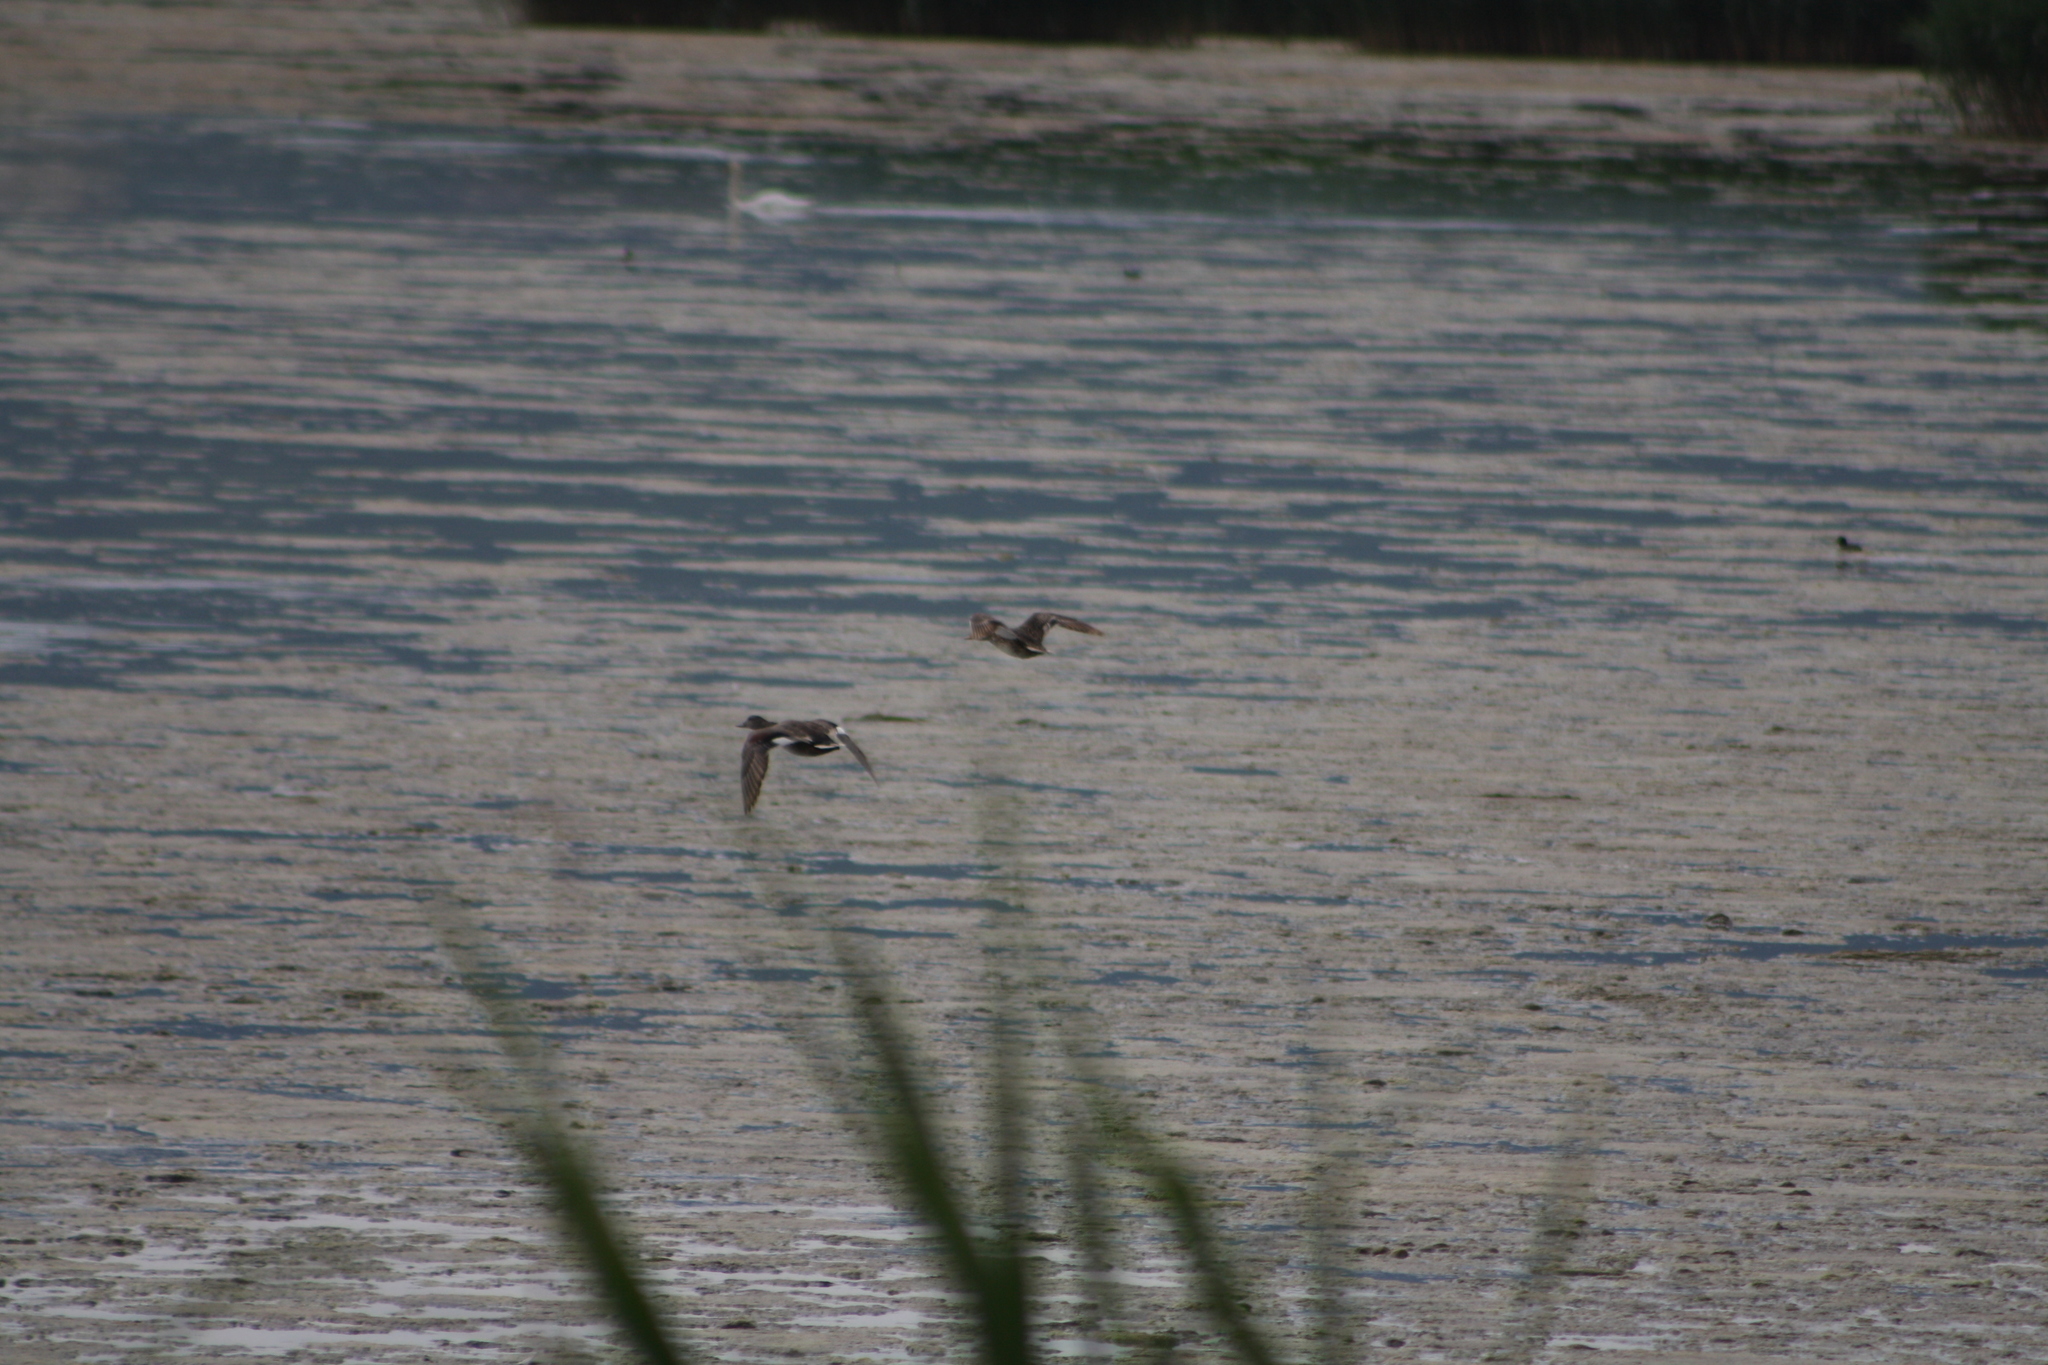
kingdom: Animalia
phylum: Chordata
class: Aves
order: Anseriformes
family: Anatidae
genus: Mareca
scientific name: Mareca strepera
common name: Gadwall
